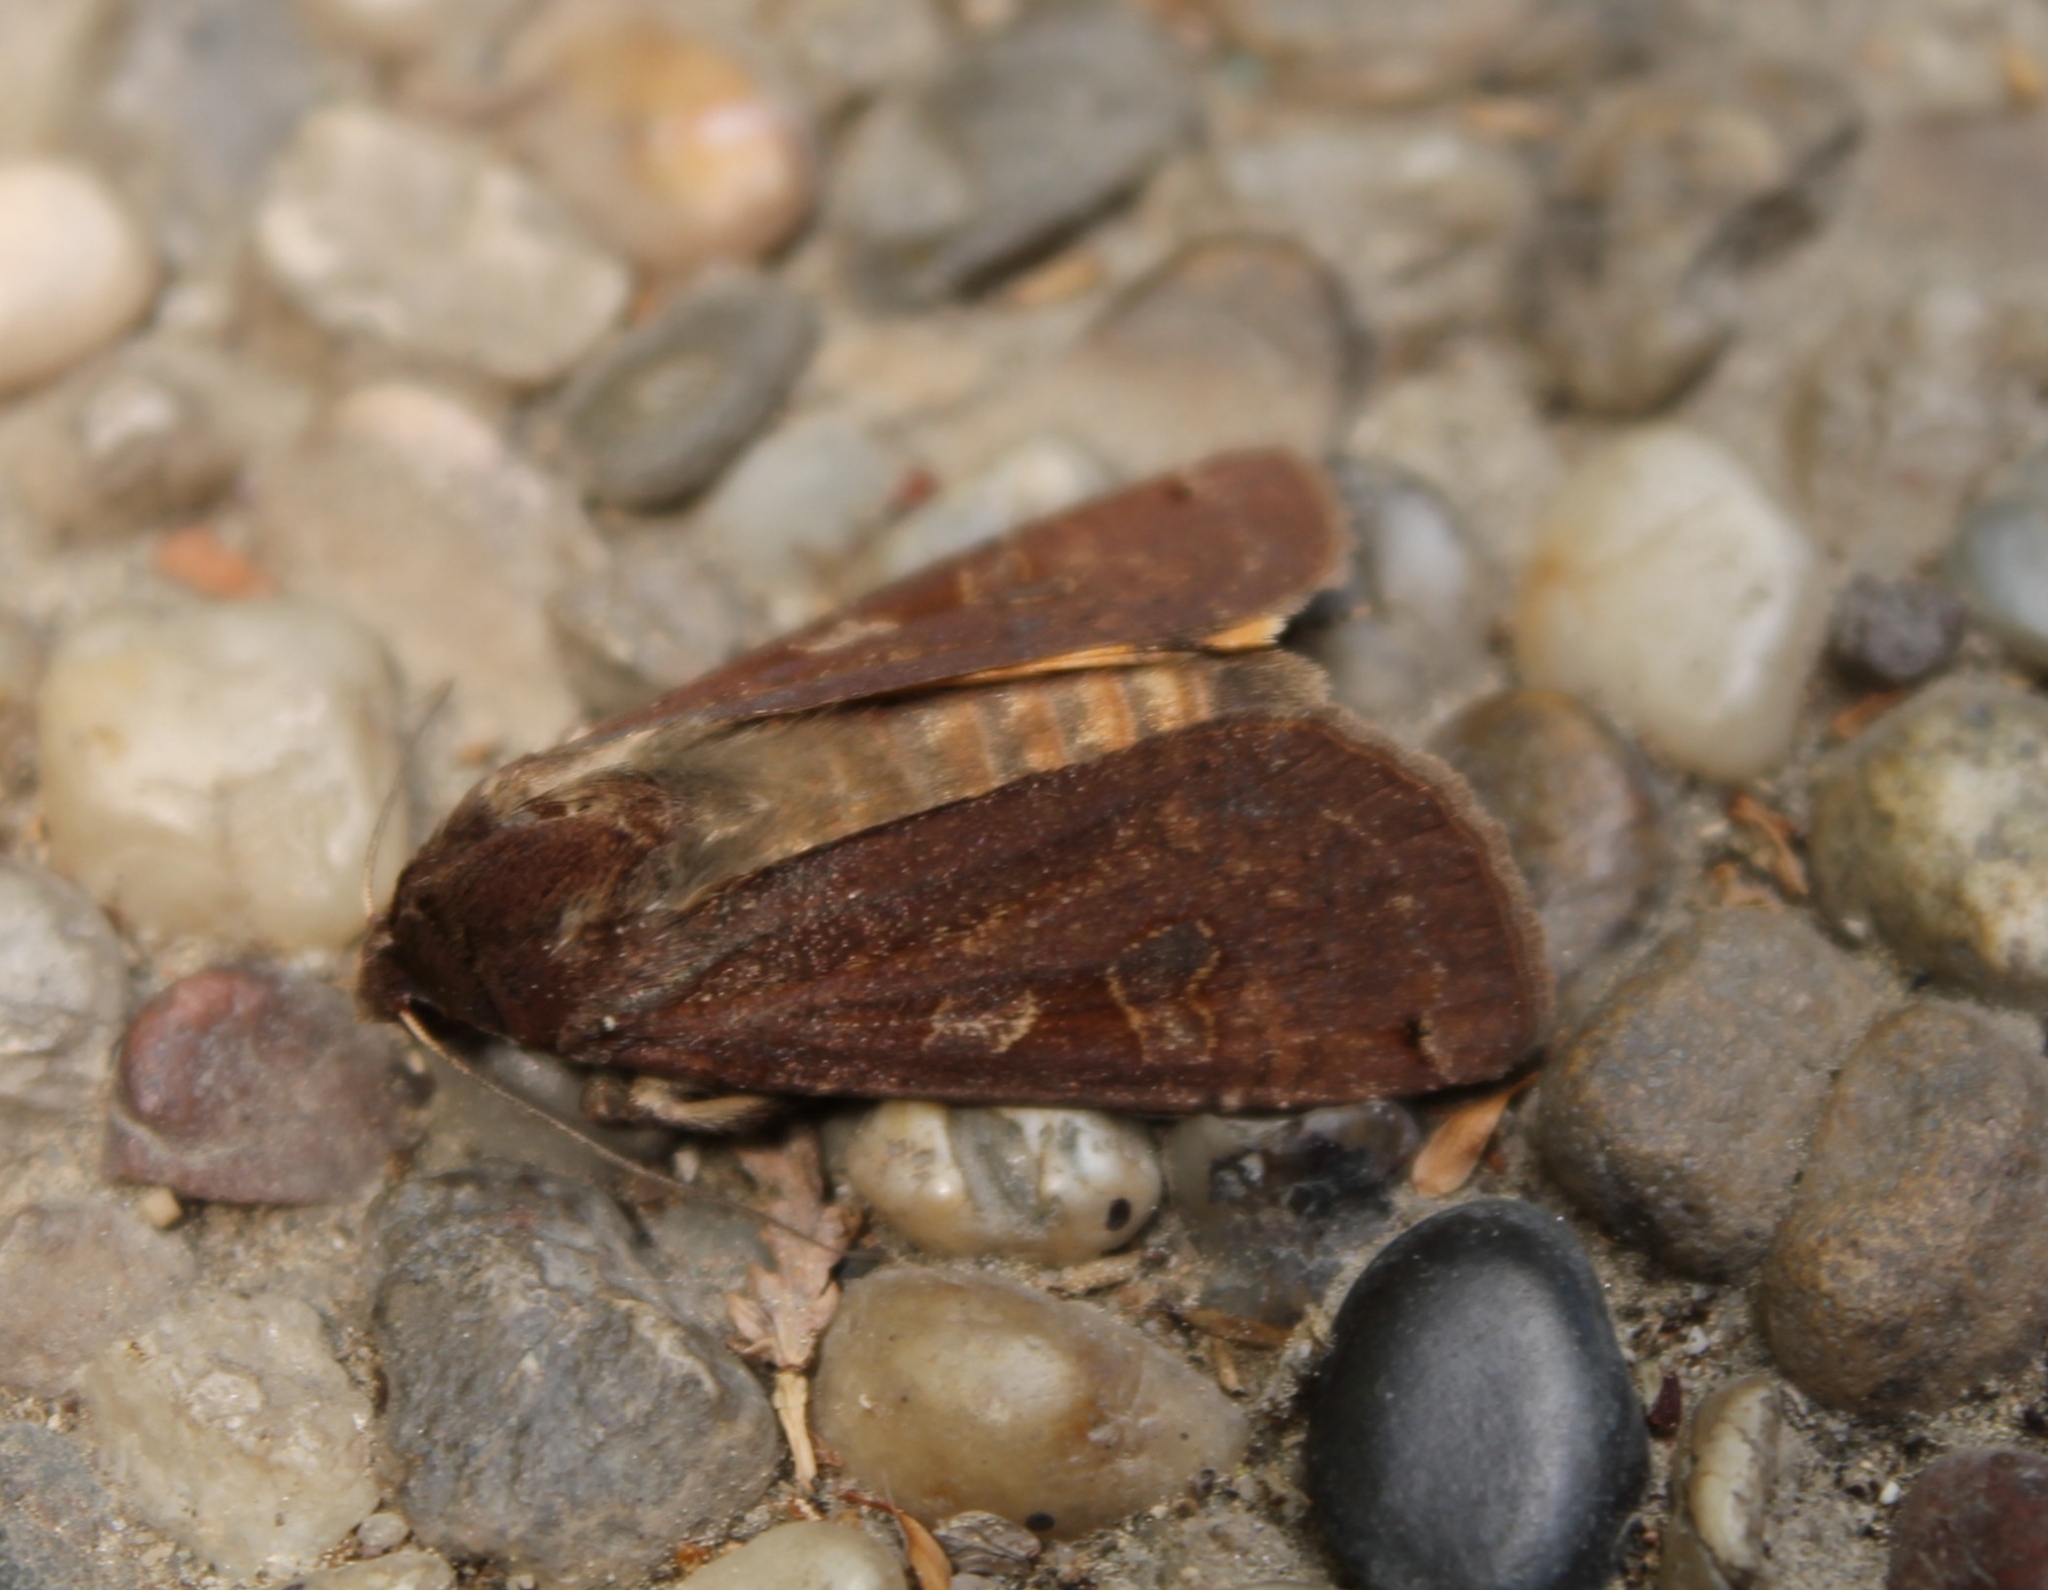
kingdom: Animalia
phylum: Arthropoda
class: Insecta
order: Lepidoptera
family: Noctuidae
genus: Noctua
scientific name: Noctua pronuba
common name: Large yellow underwing
